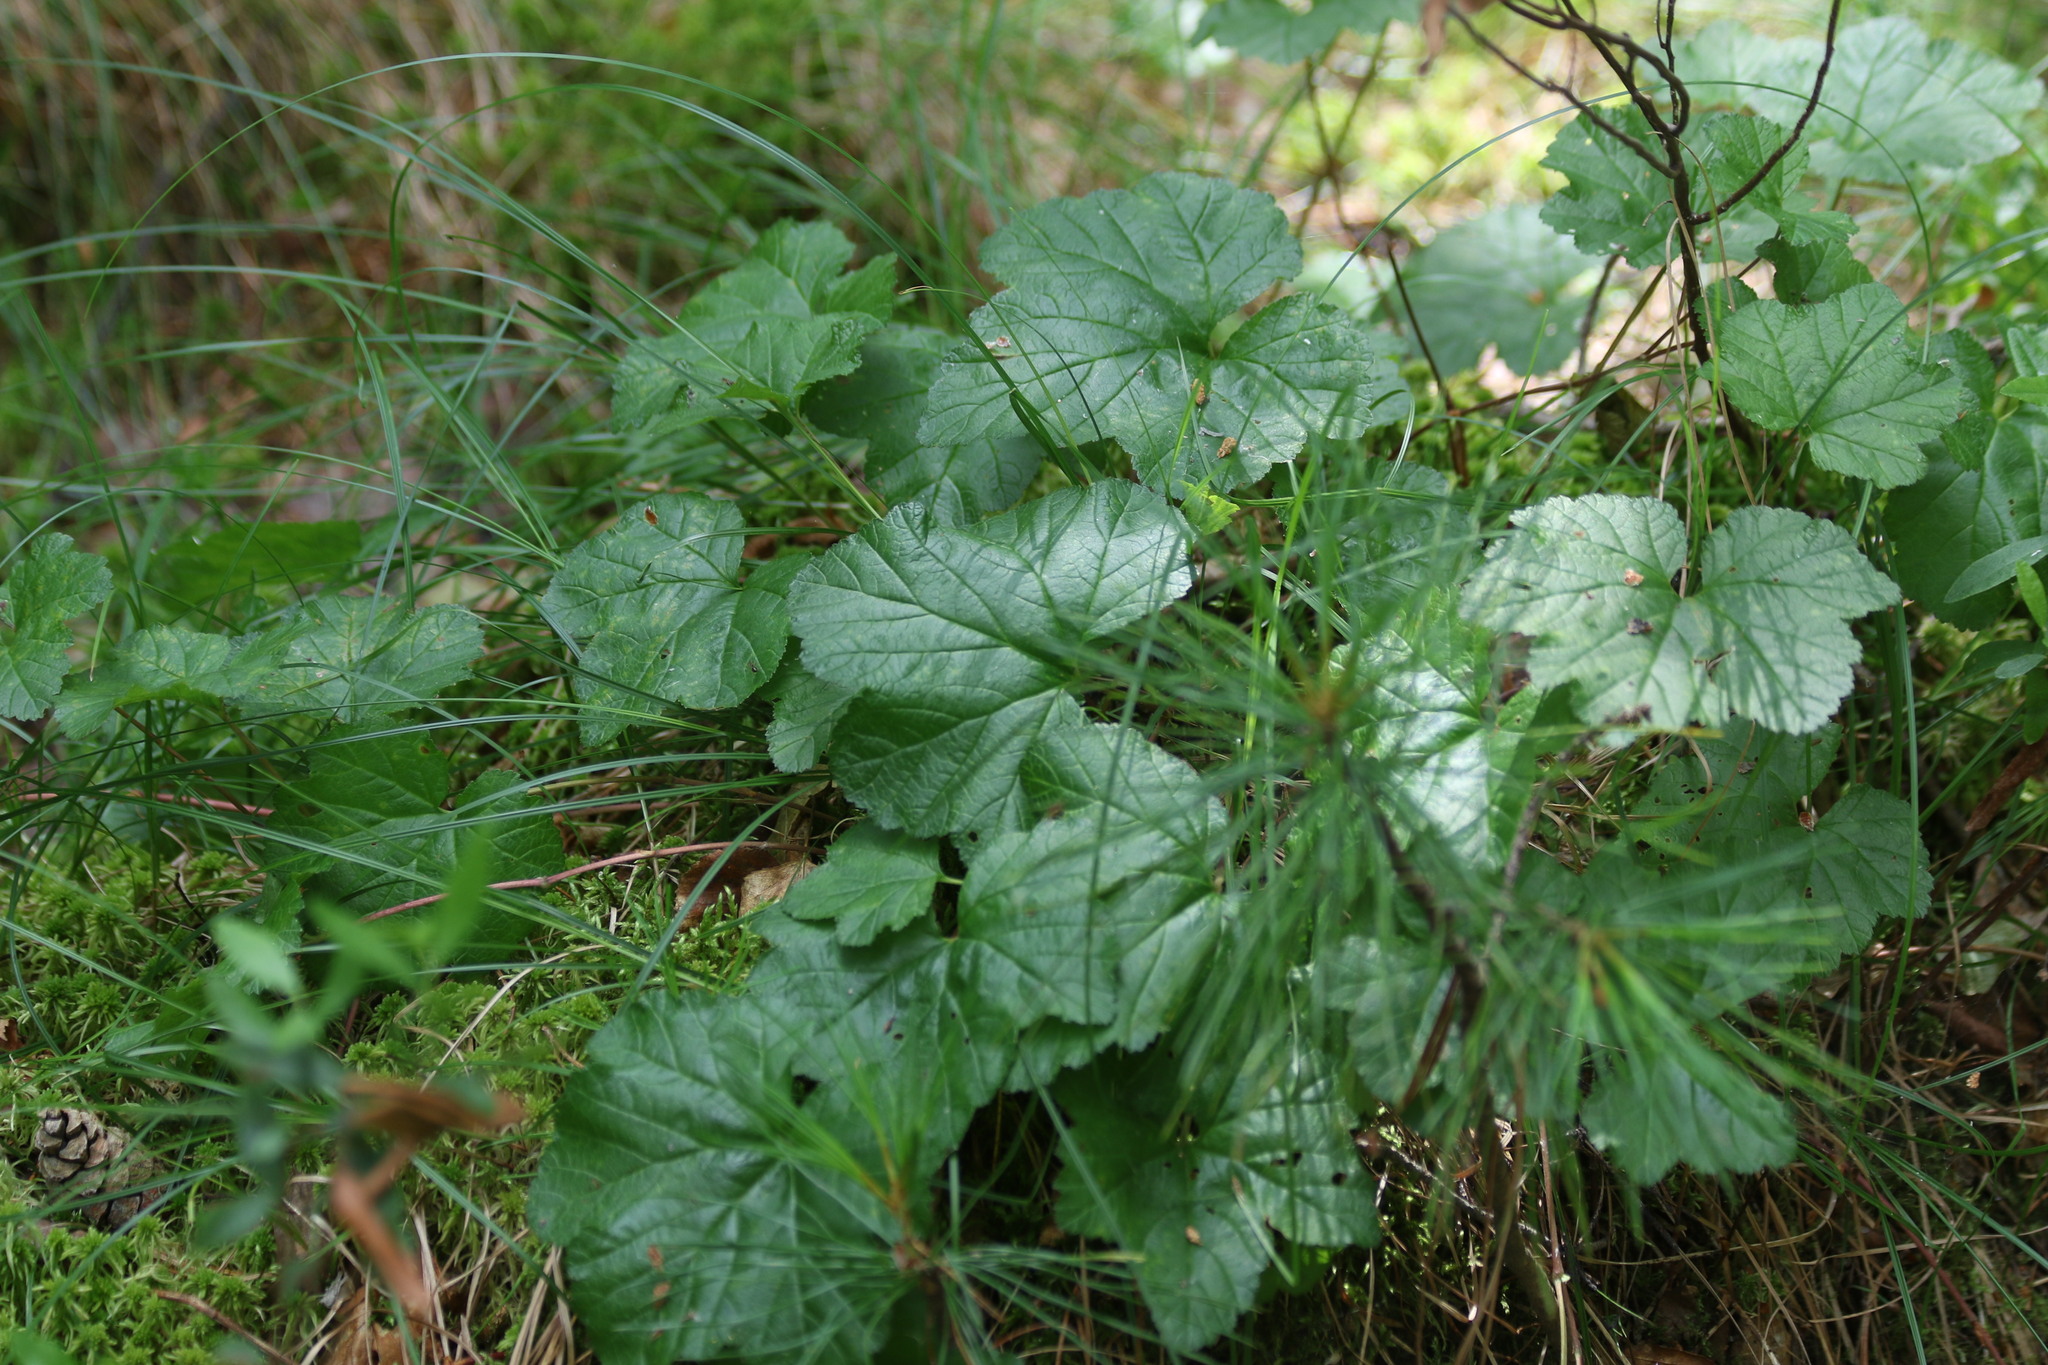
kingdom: Plantae
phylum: Tracheophyta
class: Magnoliopsida
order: Rosales
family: Rosaceae
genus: Rubus
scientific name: Rubus chamaemorus
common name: Cloudberry
